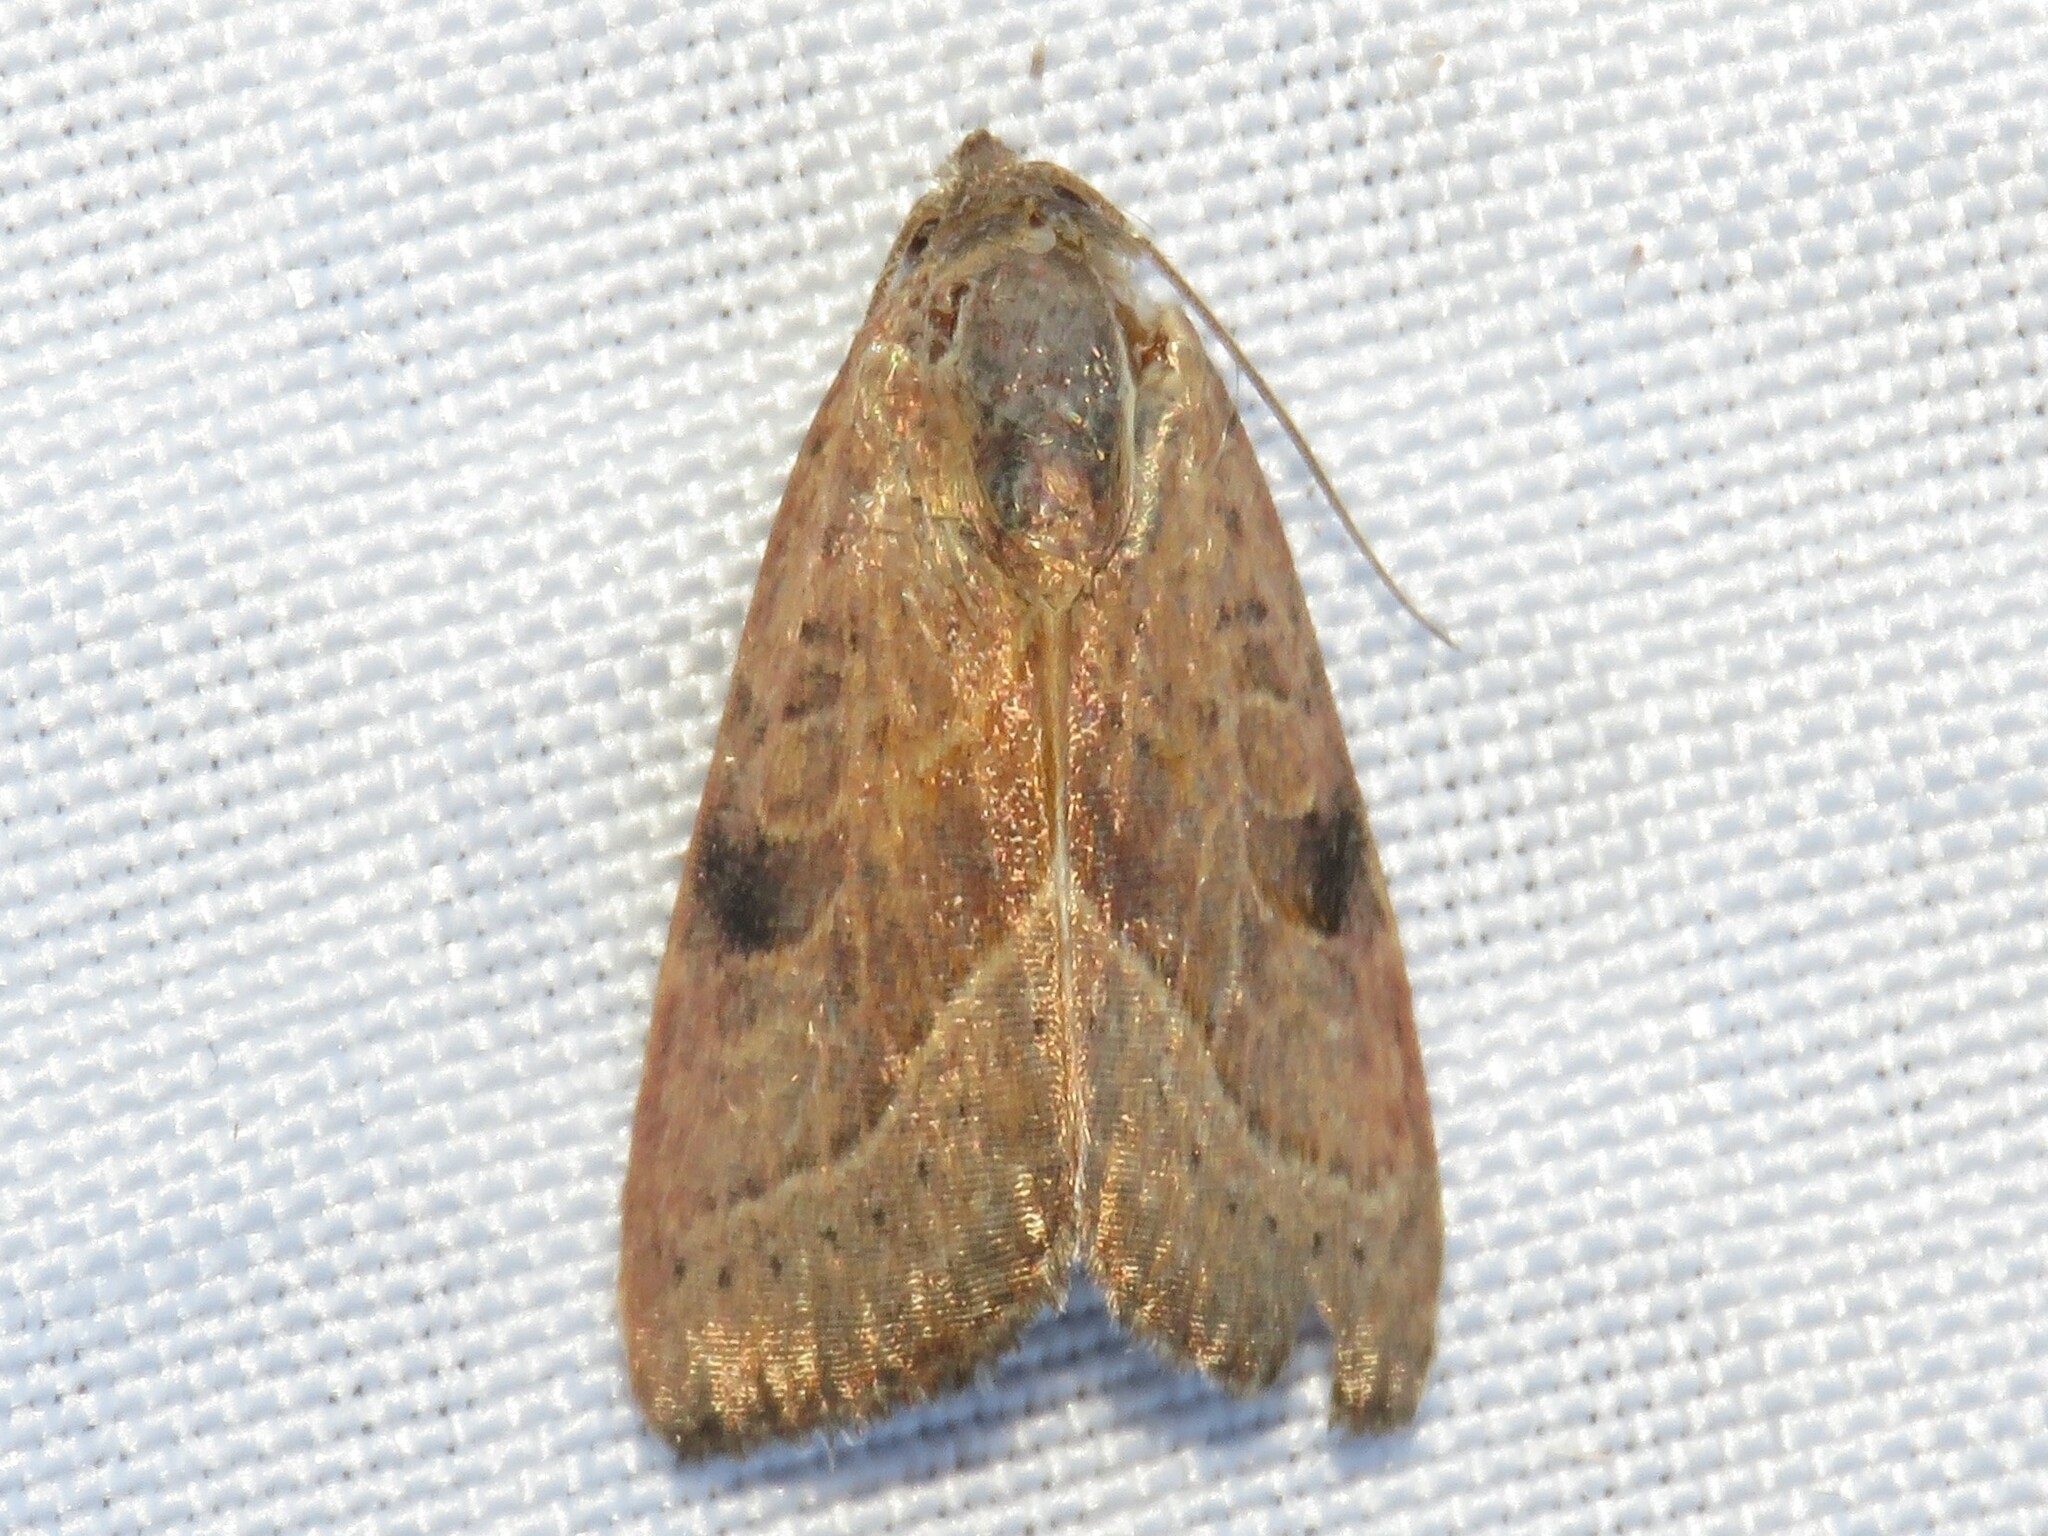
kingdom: Animalia
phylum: Arthropoda
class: Insecta
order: Lepidoptera
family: Noctuidae
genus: Galgula
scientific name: Galgula partita
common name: Wedgeling
